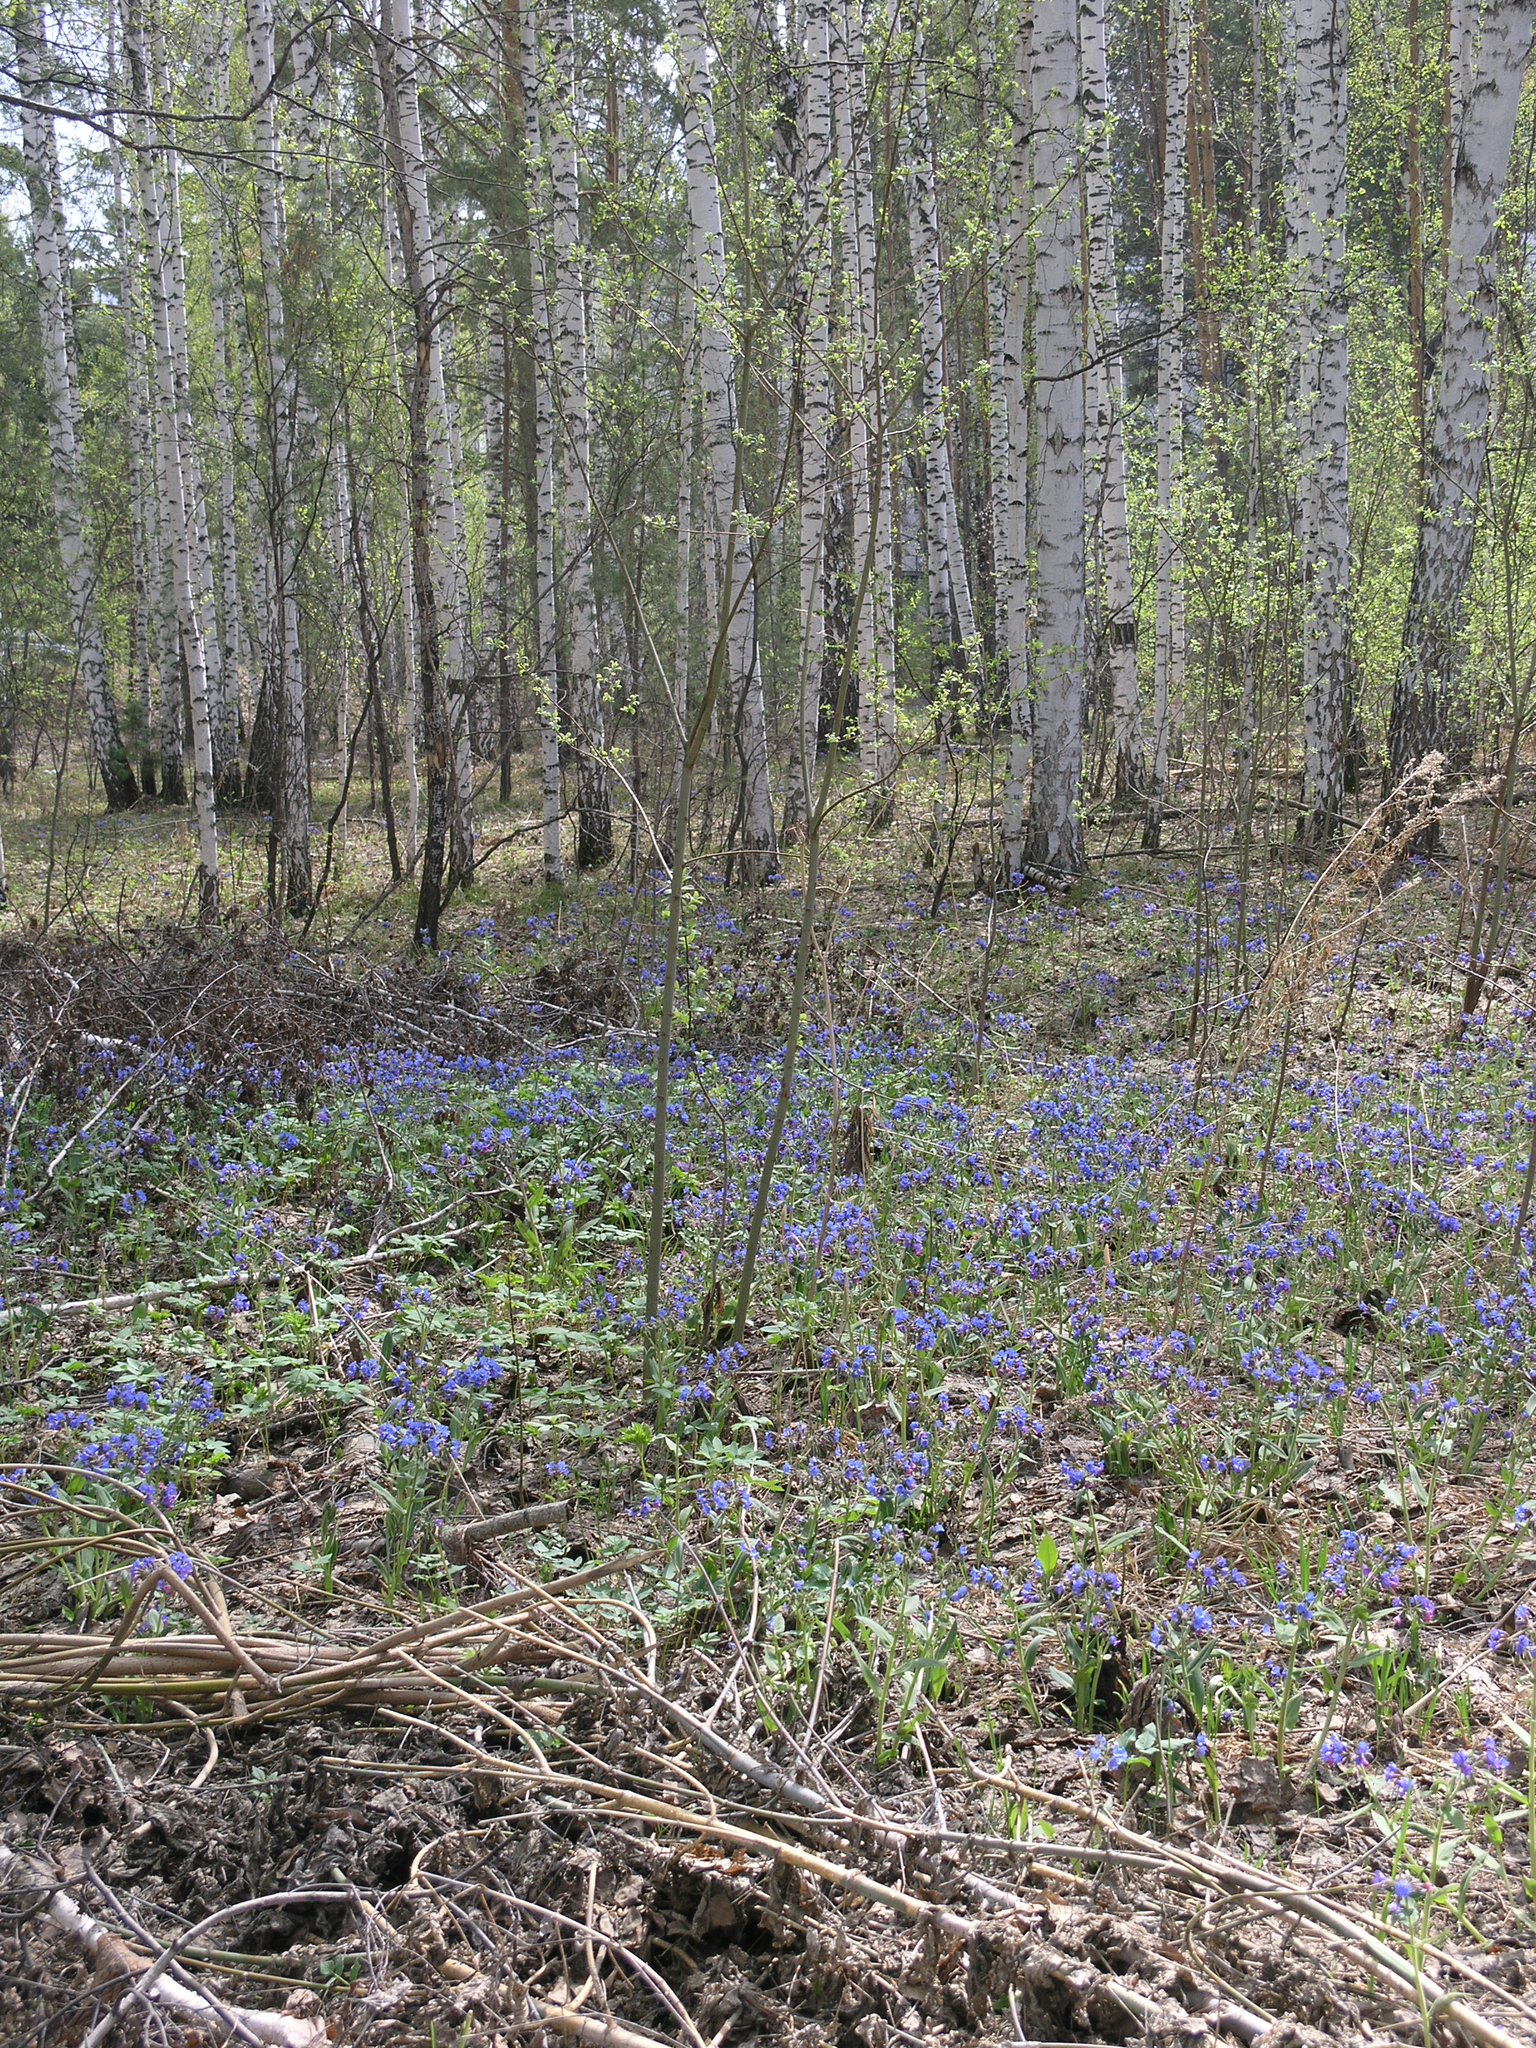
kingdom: Plantae
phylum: Tracheophyta
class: Magnoliopsida
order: Boraginales
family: Boraginaceae
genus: Pulmonaria
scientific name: Pulmonaria mollis
